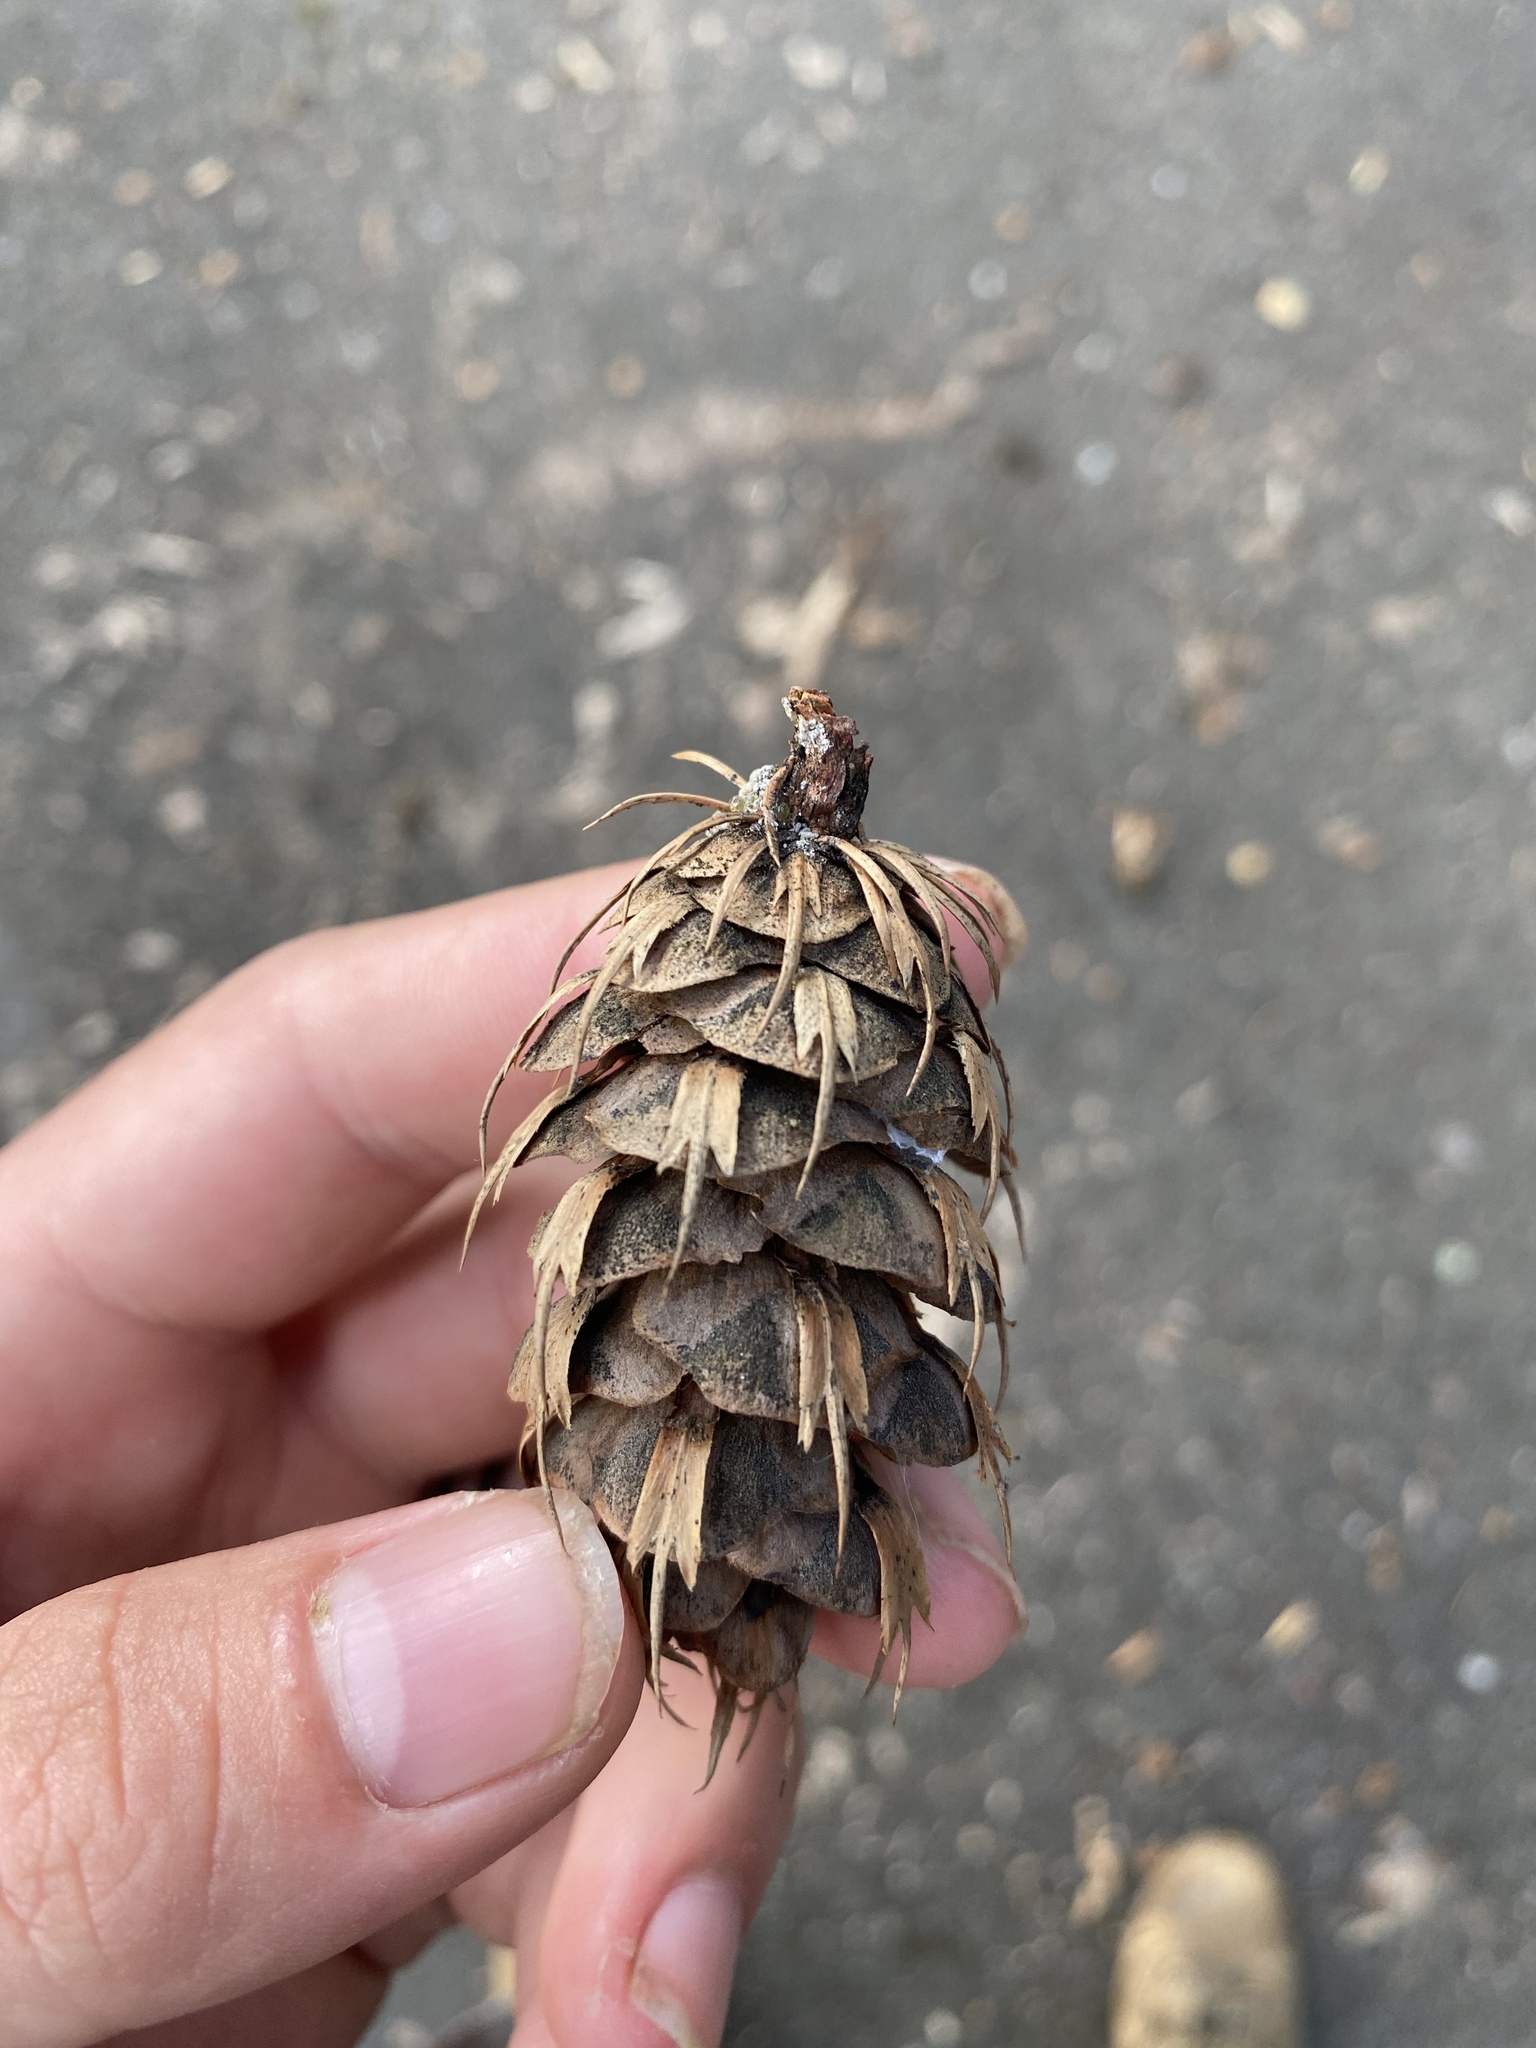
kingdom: Plantae
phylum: Tracheophyta
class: Pinopsida
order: Pinales
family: Pinaceae
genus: Pseudotsuga
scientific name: Pseudotsuga menziesii
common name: Douglas fir
